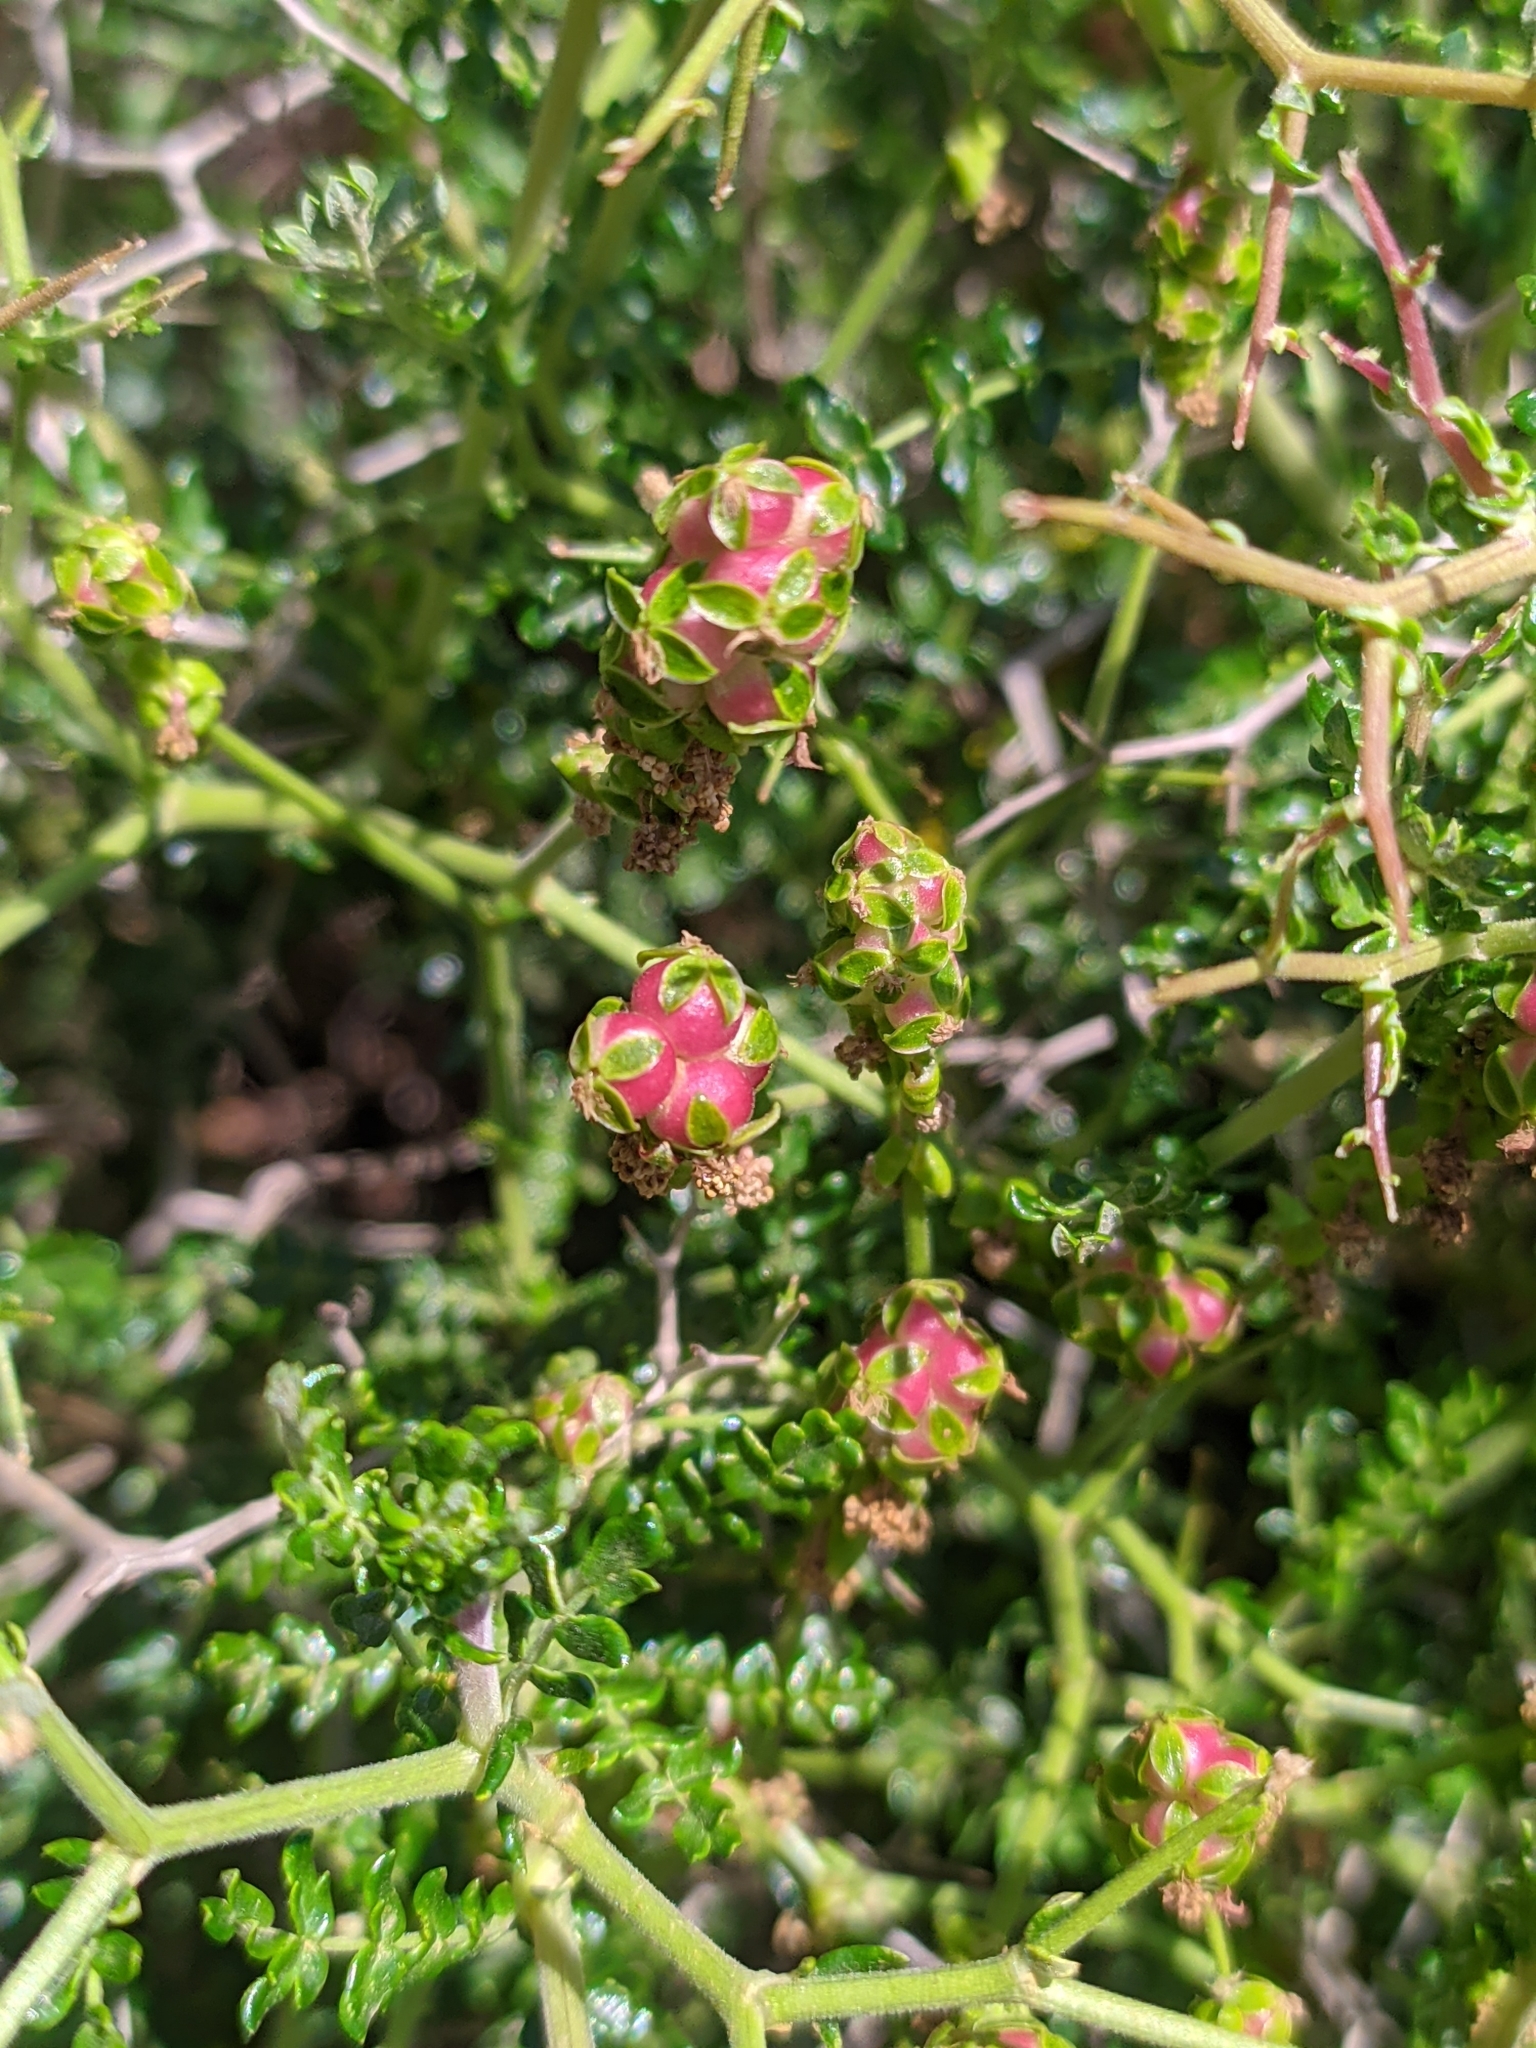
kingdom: Plantae
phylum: Tracheophyta
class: Magnoliopsida
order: Rosales
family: Rosaceae
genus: Sarcopoterium
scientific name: Sarcopoterium spinosum
